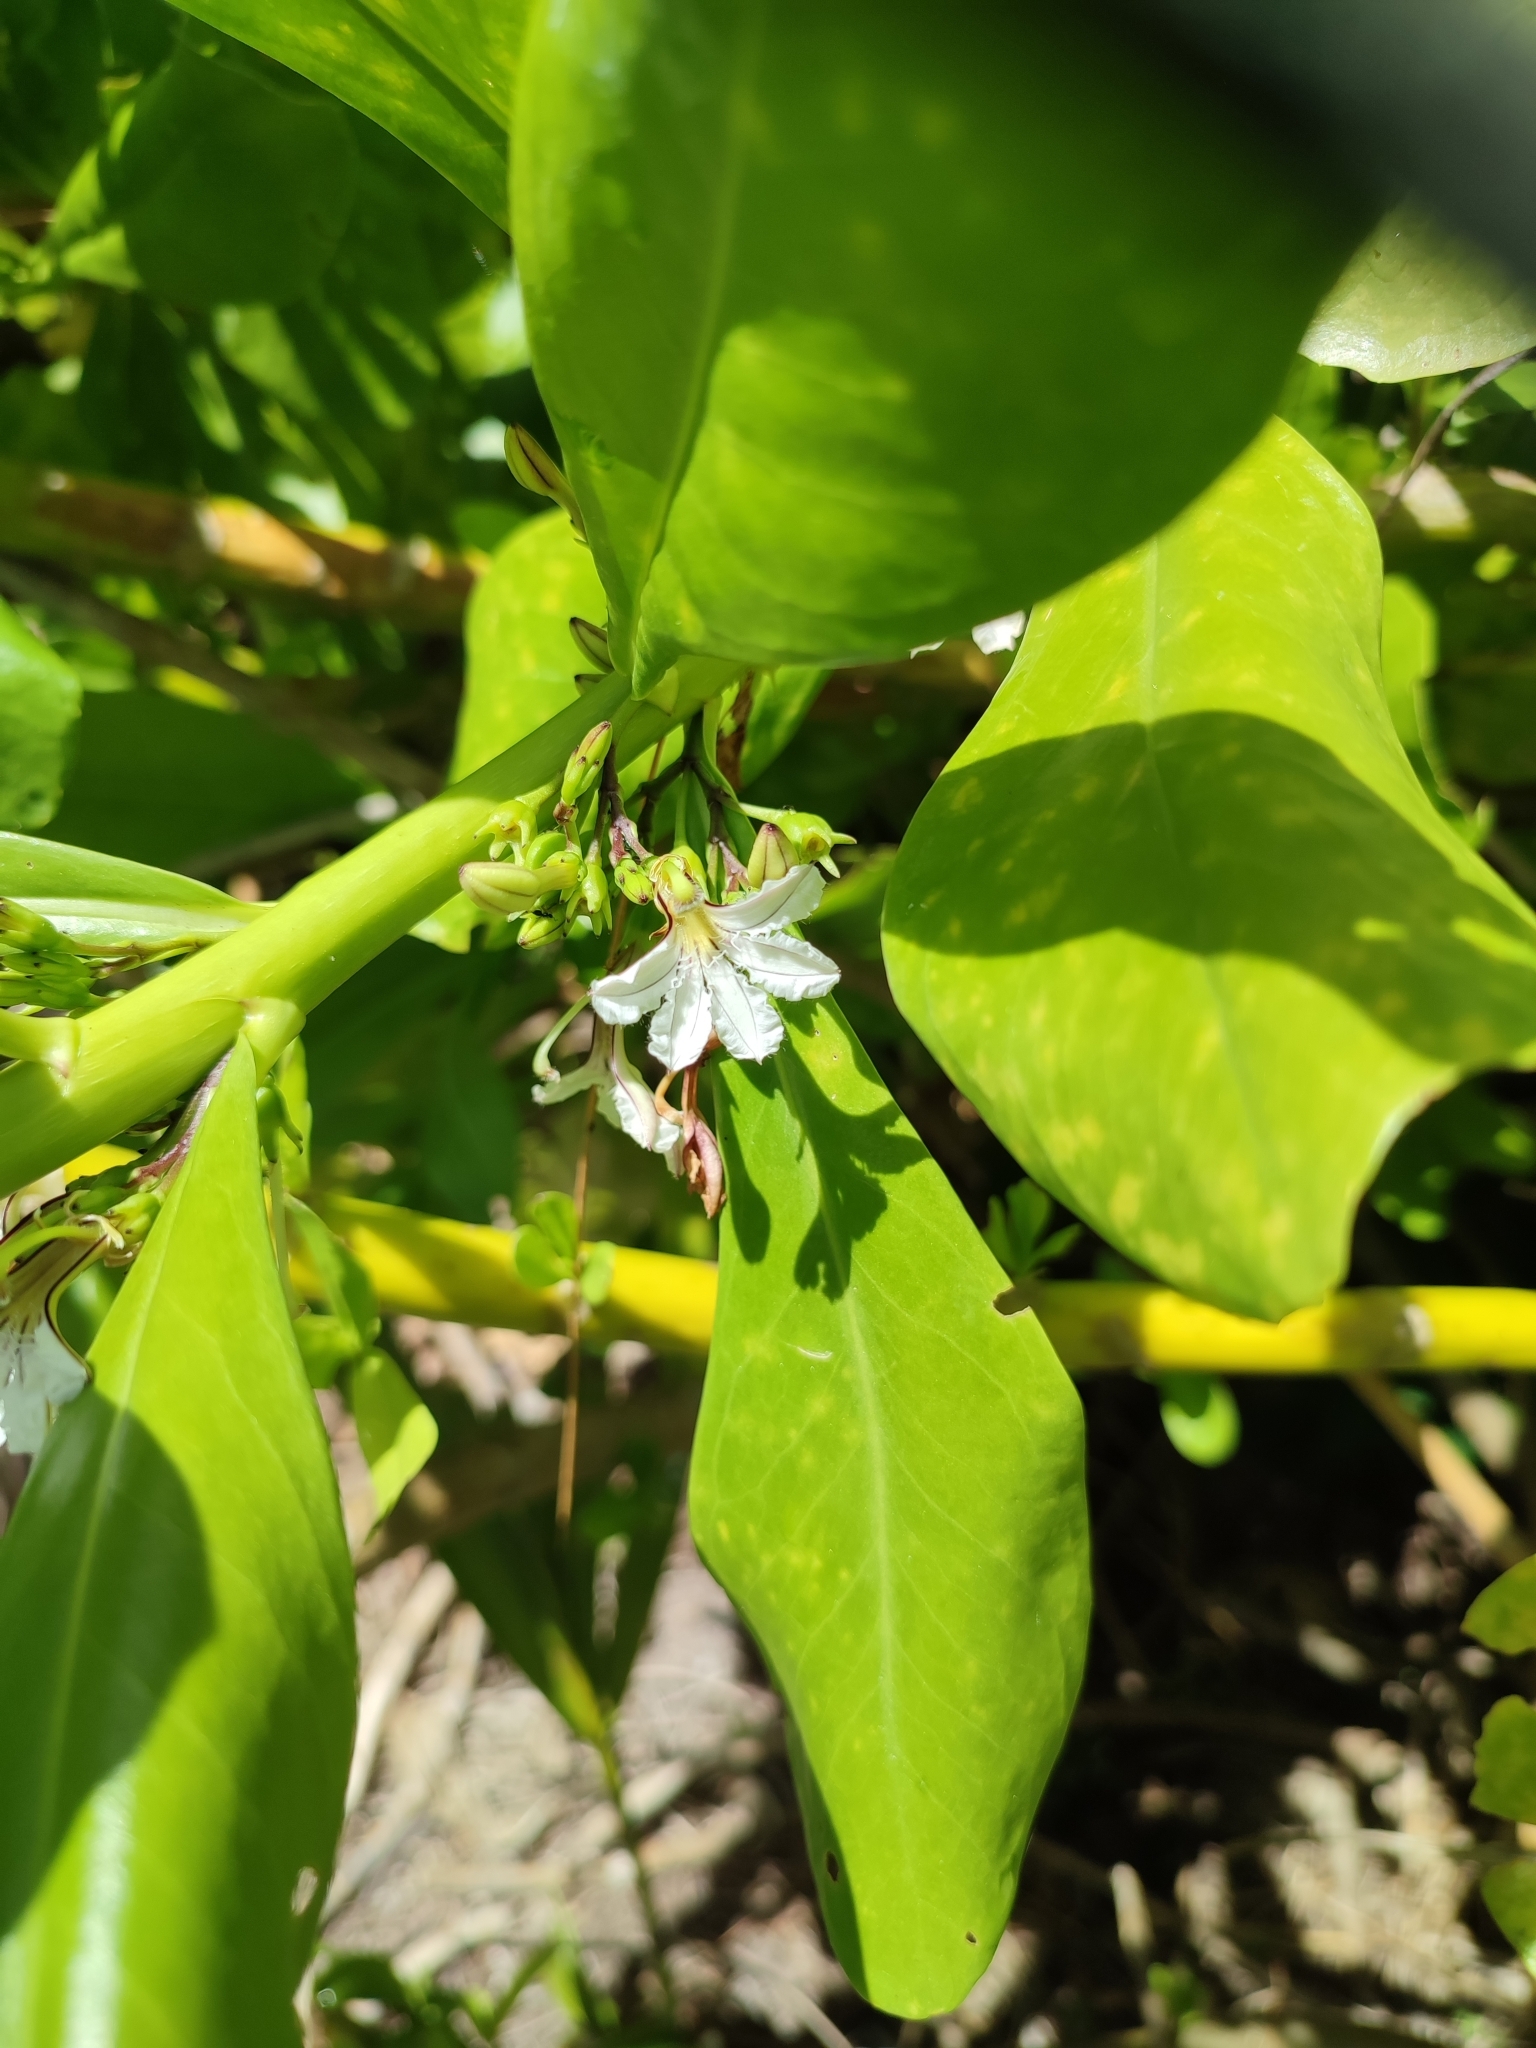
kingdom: Plantae
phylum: Tracheophyta
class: Magnoliopsida
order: Asterales
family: Goodeniaceae
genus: Scaevola
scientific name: Scaevola taccada
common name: Sea lettucetree
